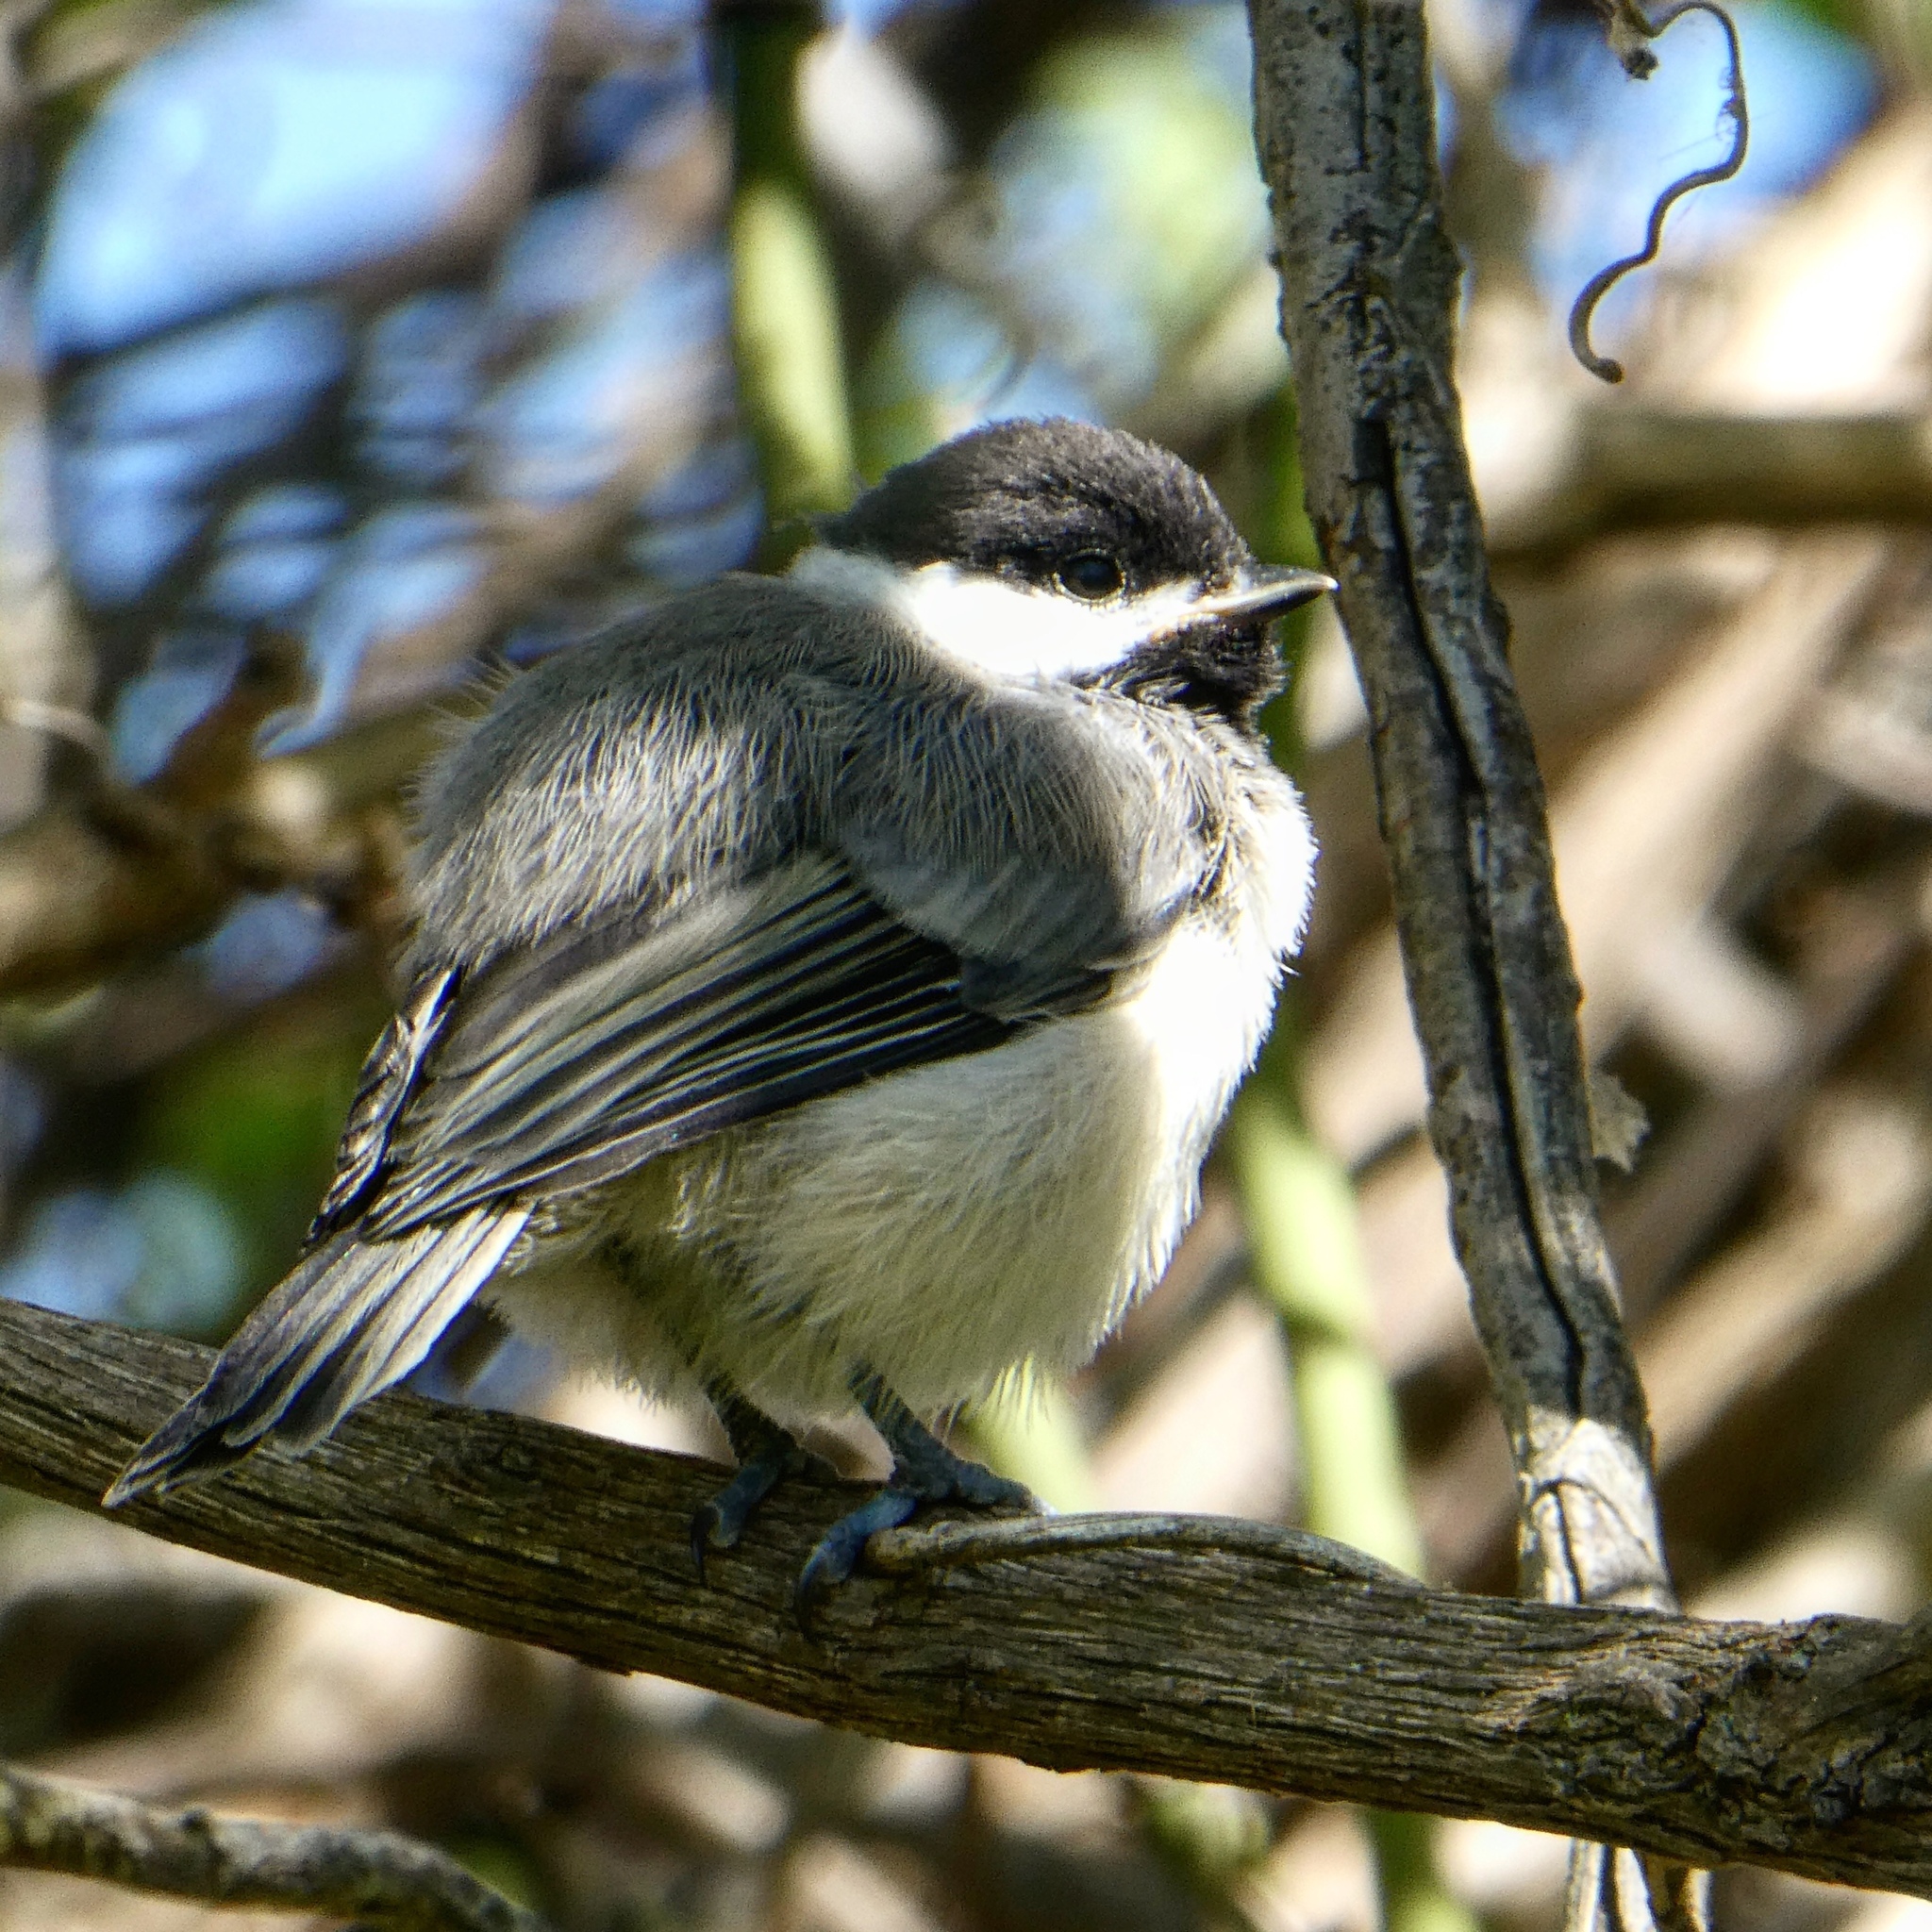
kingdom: Animalia
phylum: Chordata
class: Aves
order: Passeriformes
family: Paridae
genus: Poecile
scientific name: Poecile carolinensis
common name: Carolina chickadee
